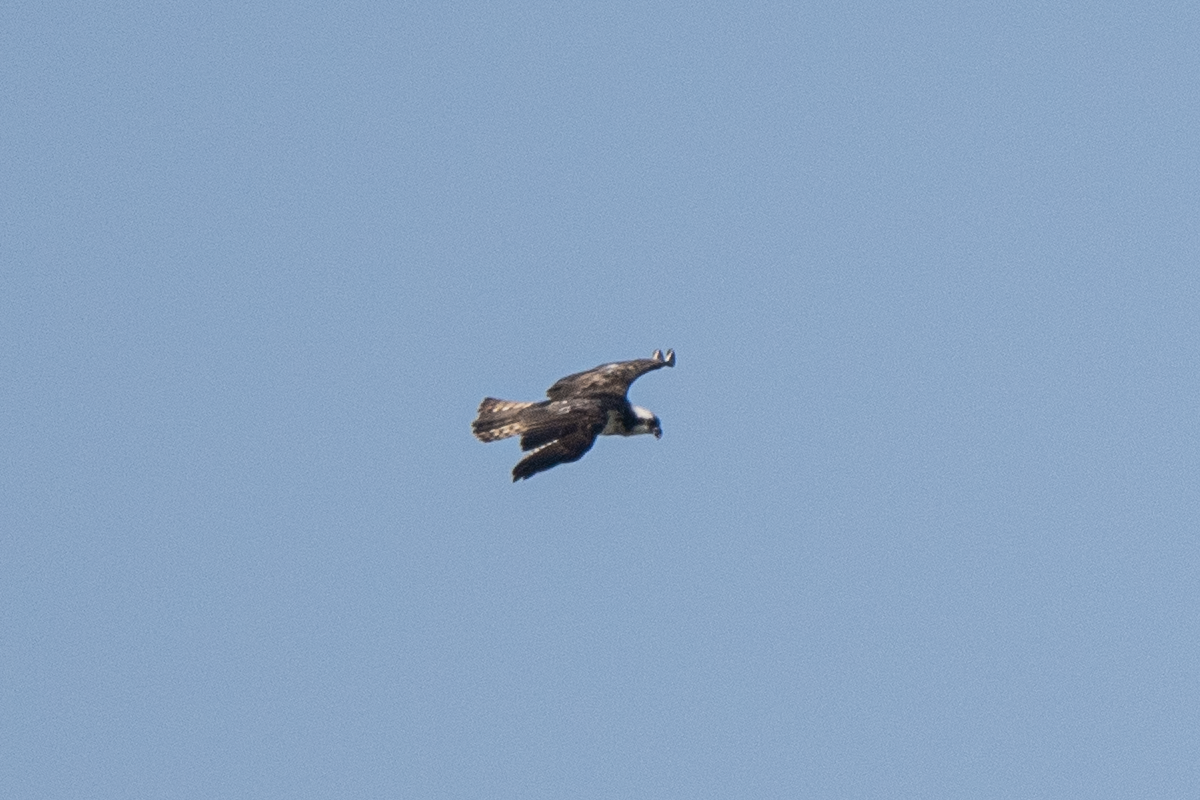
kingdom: Animalia
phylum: Chordata
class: Aves
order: Accipitriformes
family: Pandionidae
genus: Pandion
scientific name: Pandion haliaetus
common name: Osprey
